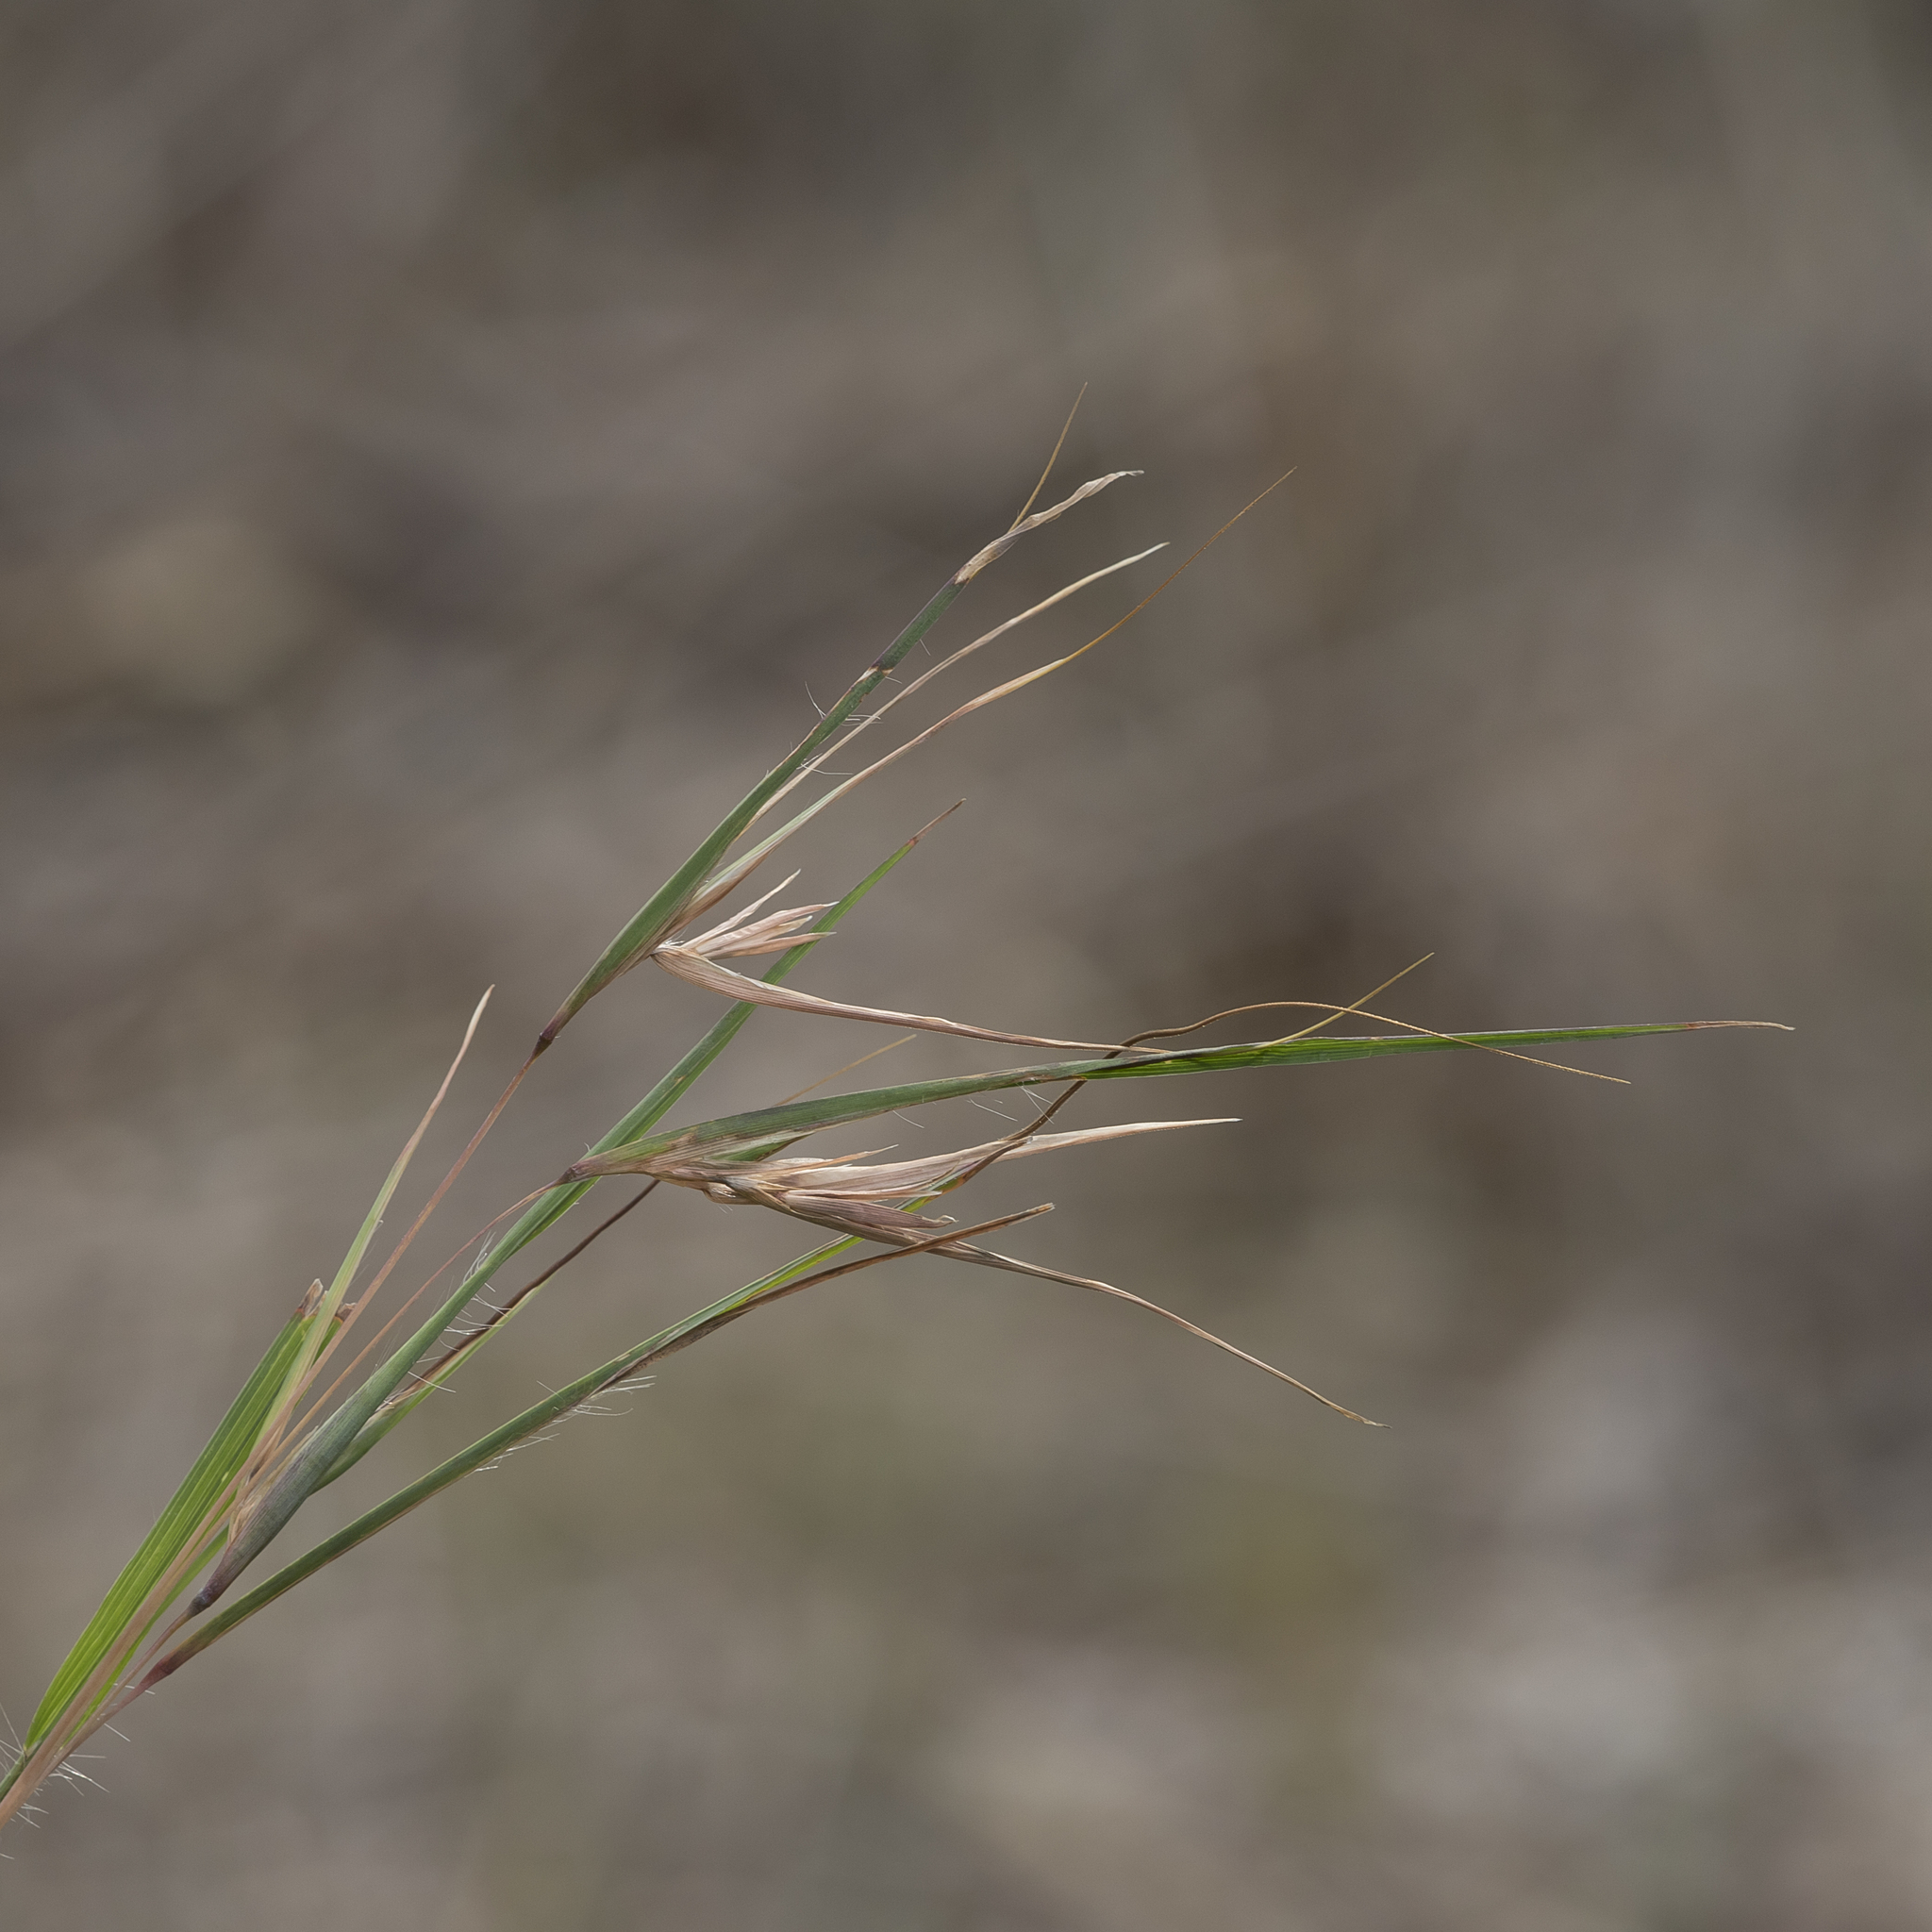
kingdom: Plantae
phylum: Tracheophyta
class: Liliopsida
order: Poales
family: Poaceae
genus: Themeda
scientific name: Themeda triandra
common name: Kangaroo grass
